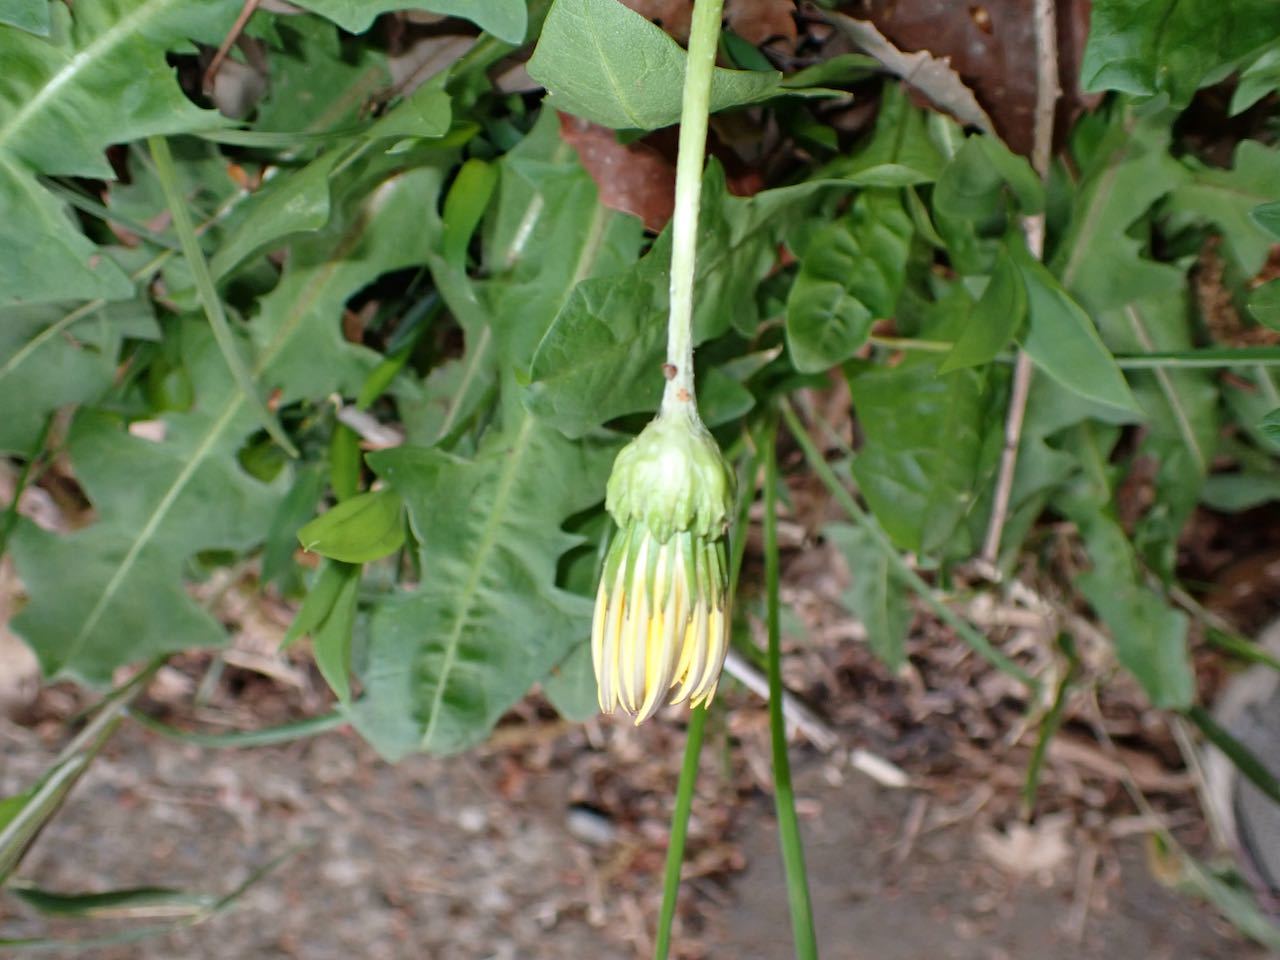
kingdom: Plantae
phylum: Tracheophyta
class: Magnoliopsida
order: Asterales
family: Asteraceae
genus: Taraxacum
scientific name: Taraxacum platycarpum
